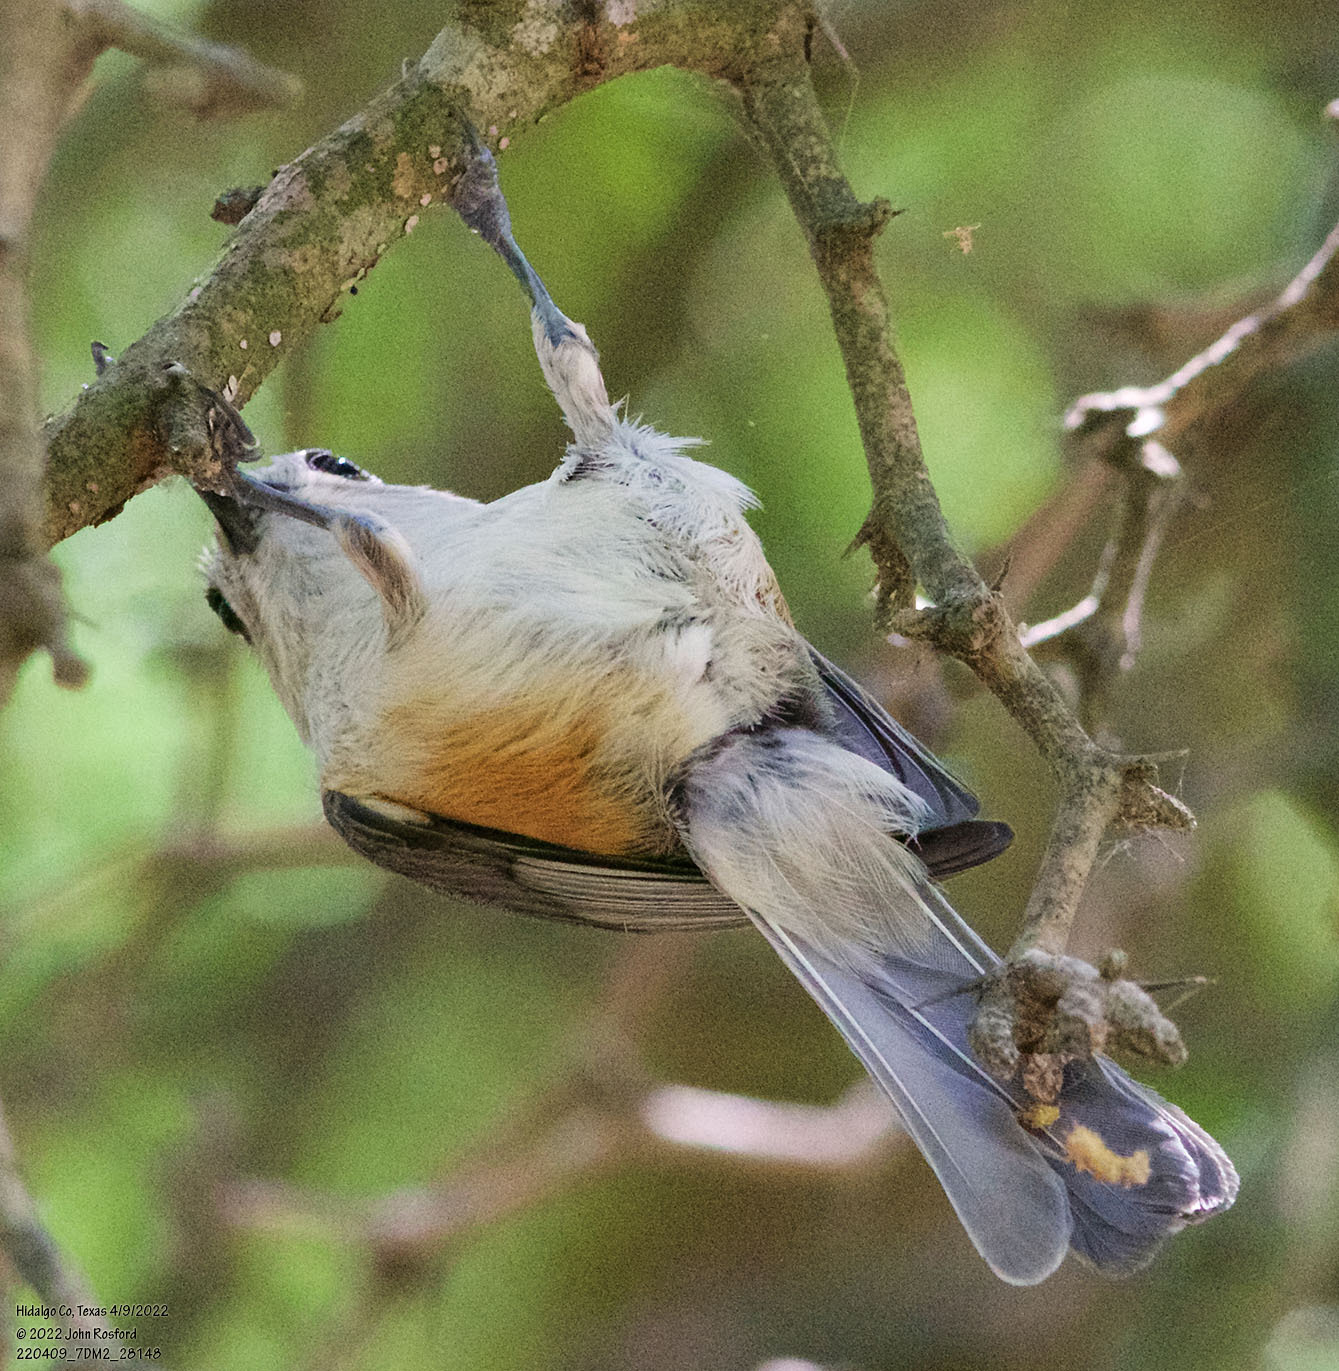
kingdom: Animalia
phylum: Chordata
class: Aves
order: Passeriformes
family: Paridae
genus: Baeolophus
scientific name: Baeolophus atricristatus
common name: Black-crested titmouse
